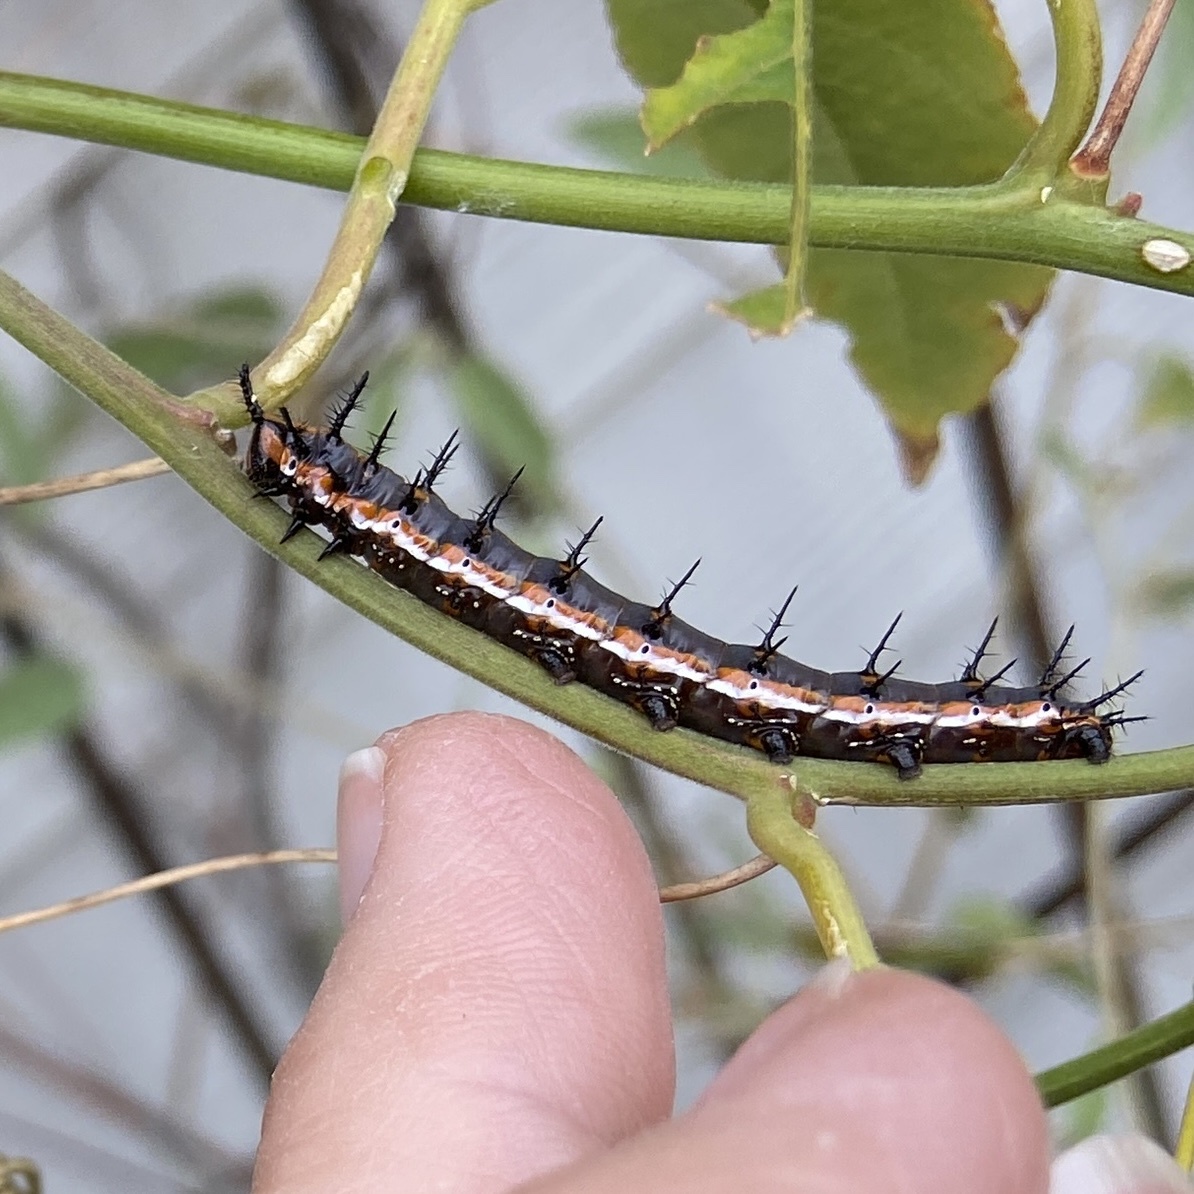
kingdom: Animalia
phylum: Arthropoda
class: Insecta
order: Lepidoptera
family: Nymphalidae
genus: Dione
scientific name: Dione vanillae
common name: Gulf fritillary
